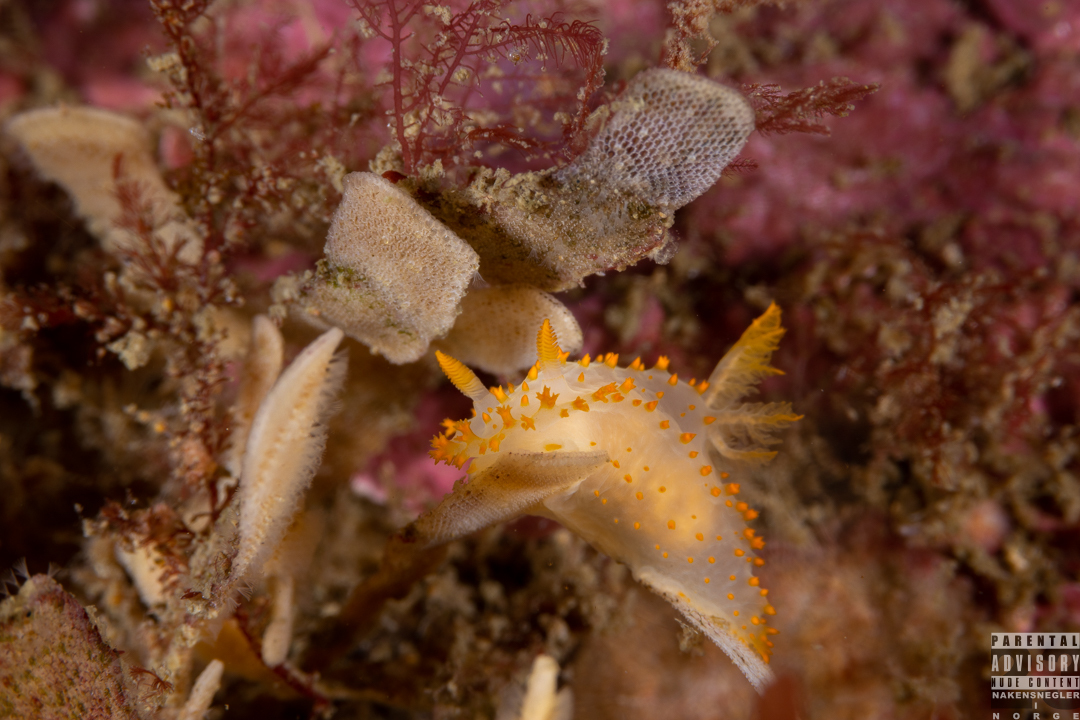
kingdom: Animalia
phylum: Mollusca
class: Gastropoda
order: Nudibranchia
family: Polyceridae
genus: Crimora
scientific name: Crimora papillata
